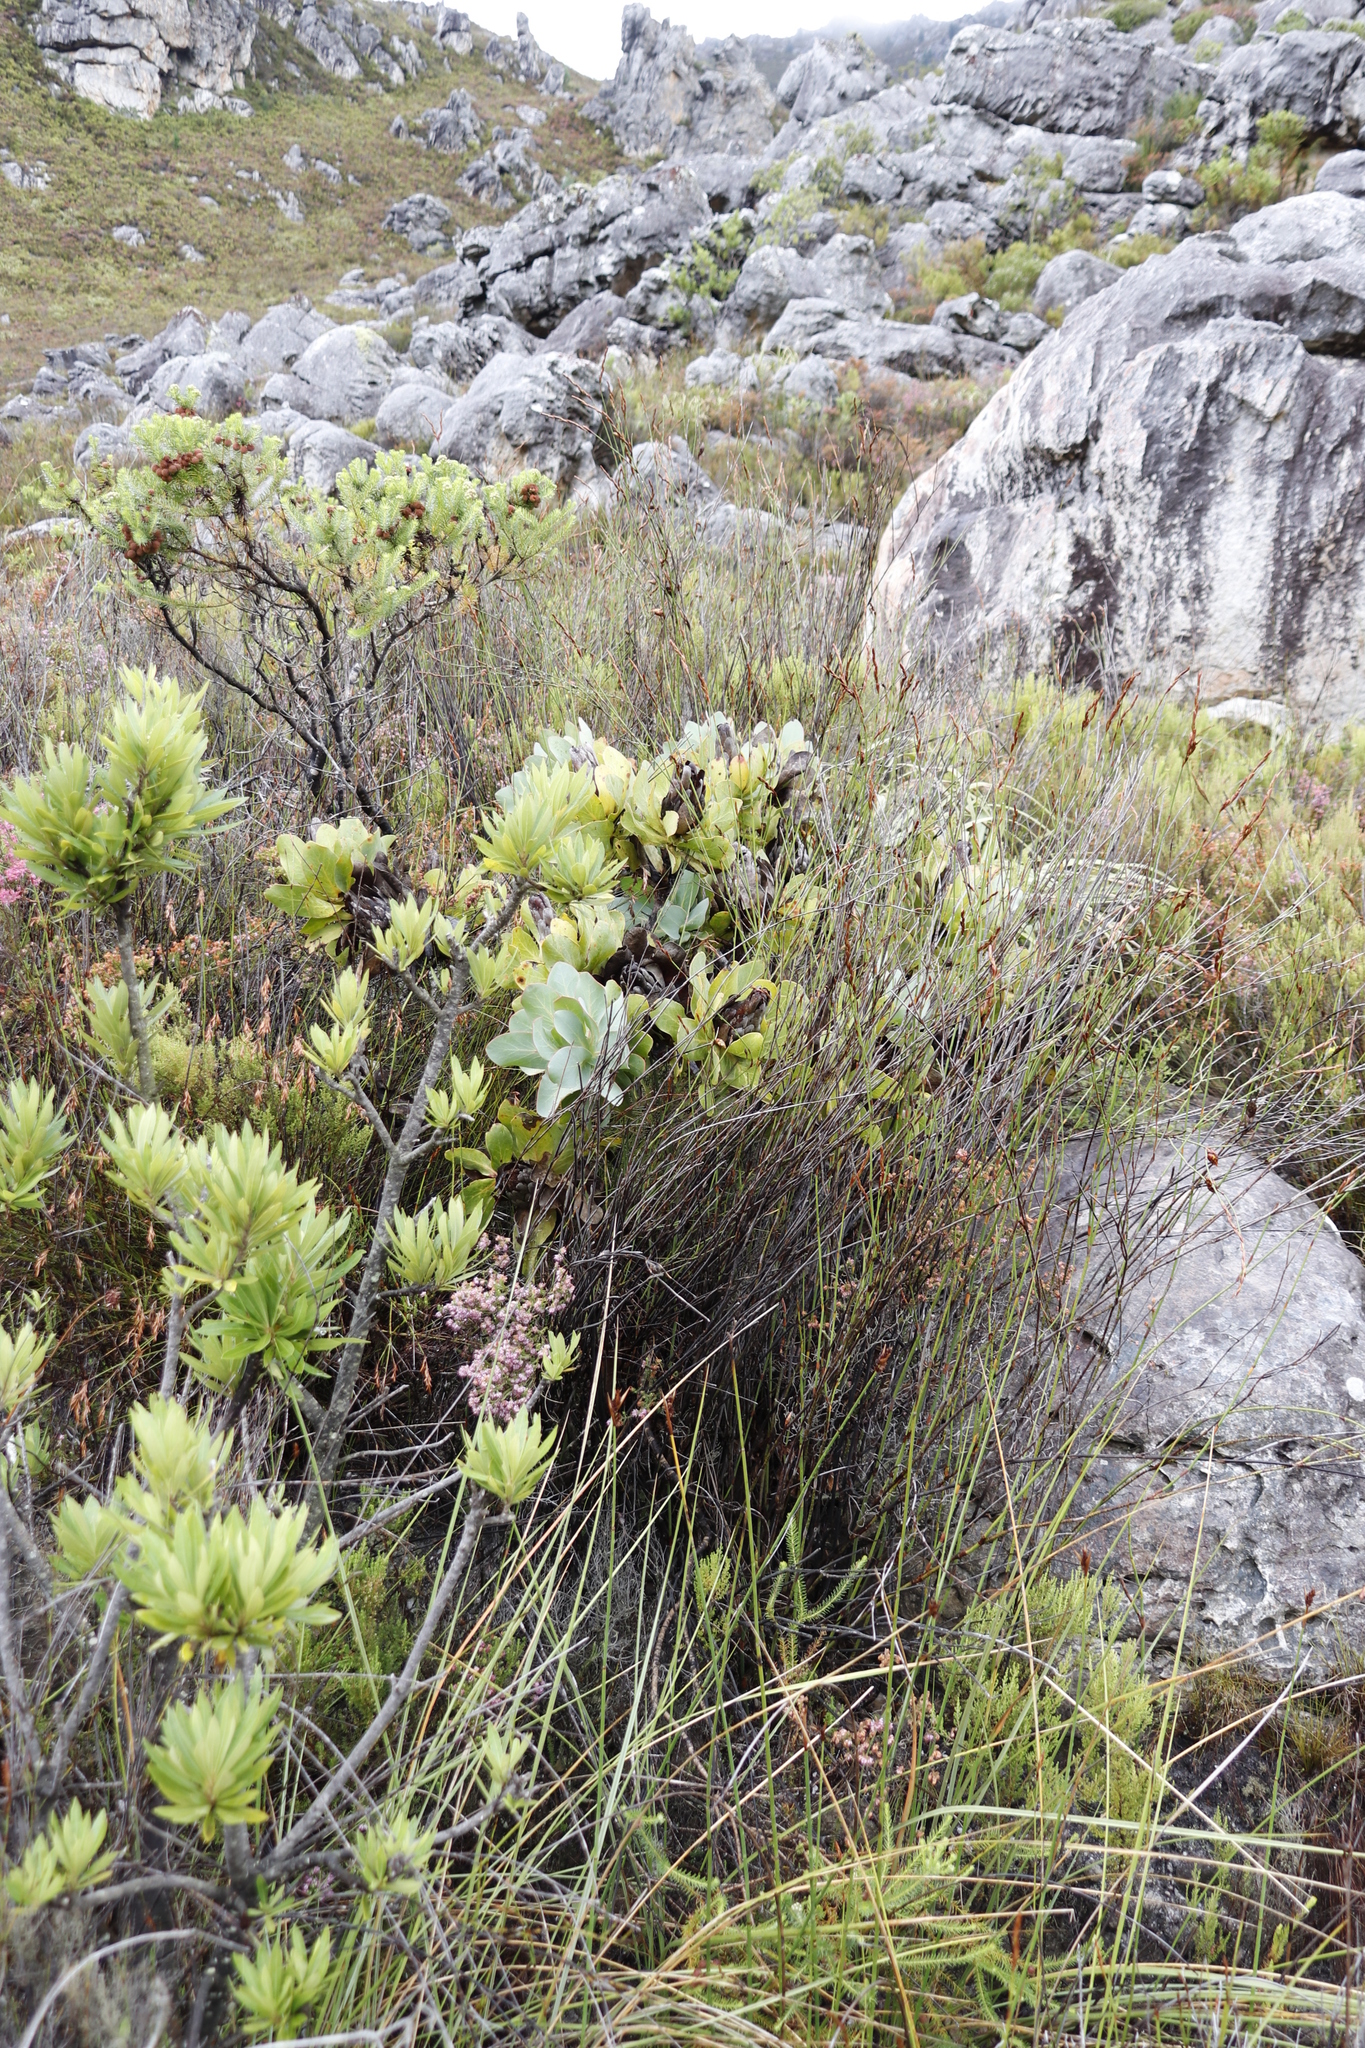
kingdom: Plantae
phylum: Tracheophyta
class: Magnoliopsida
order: Proteales
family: Proteaceae
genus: Protea
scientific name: Protea grandiceps
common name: Red sugarbush
